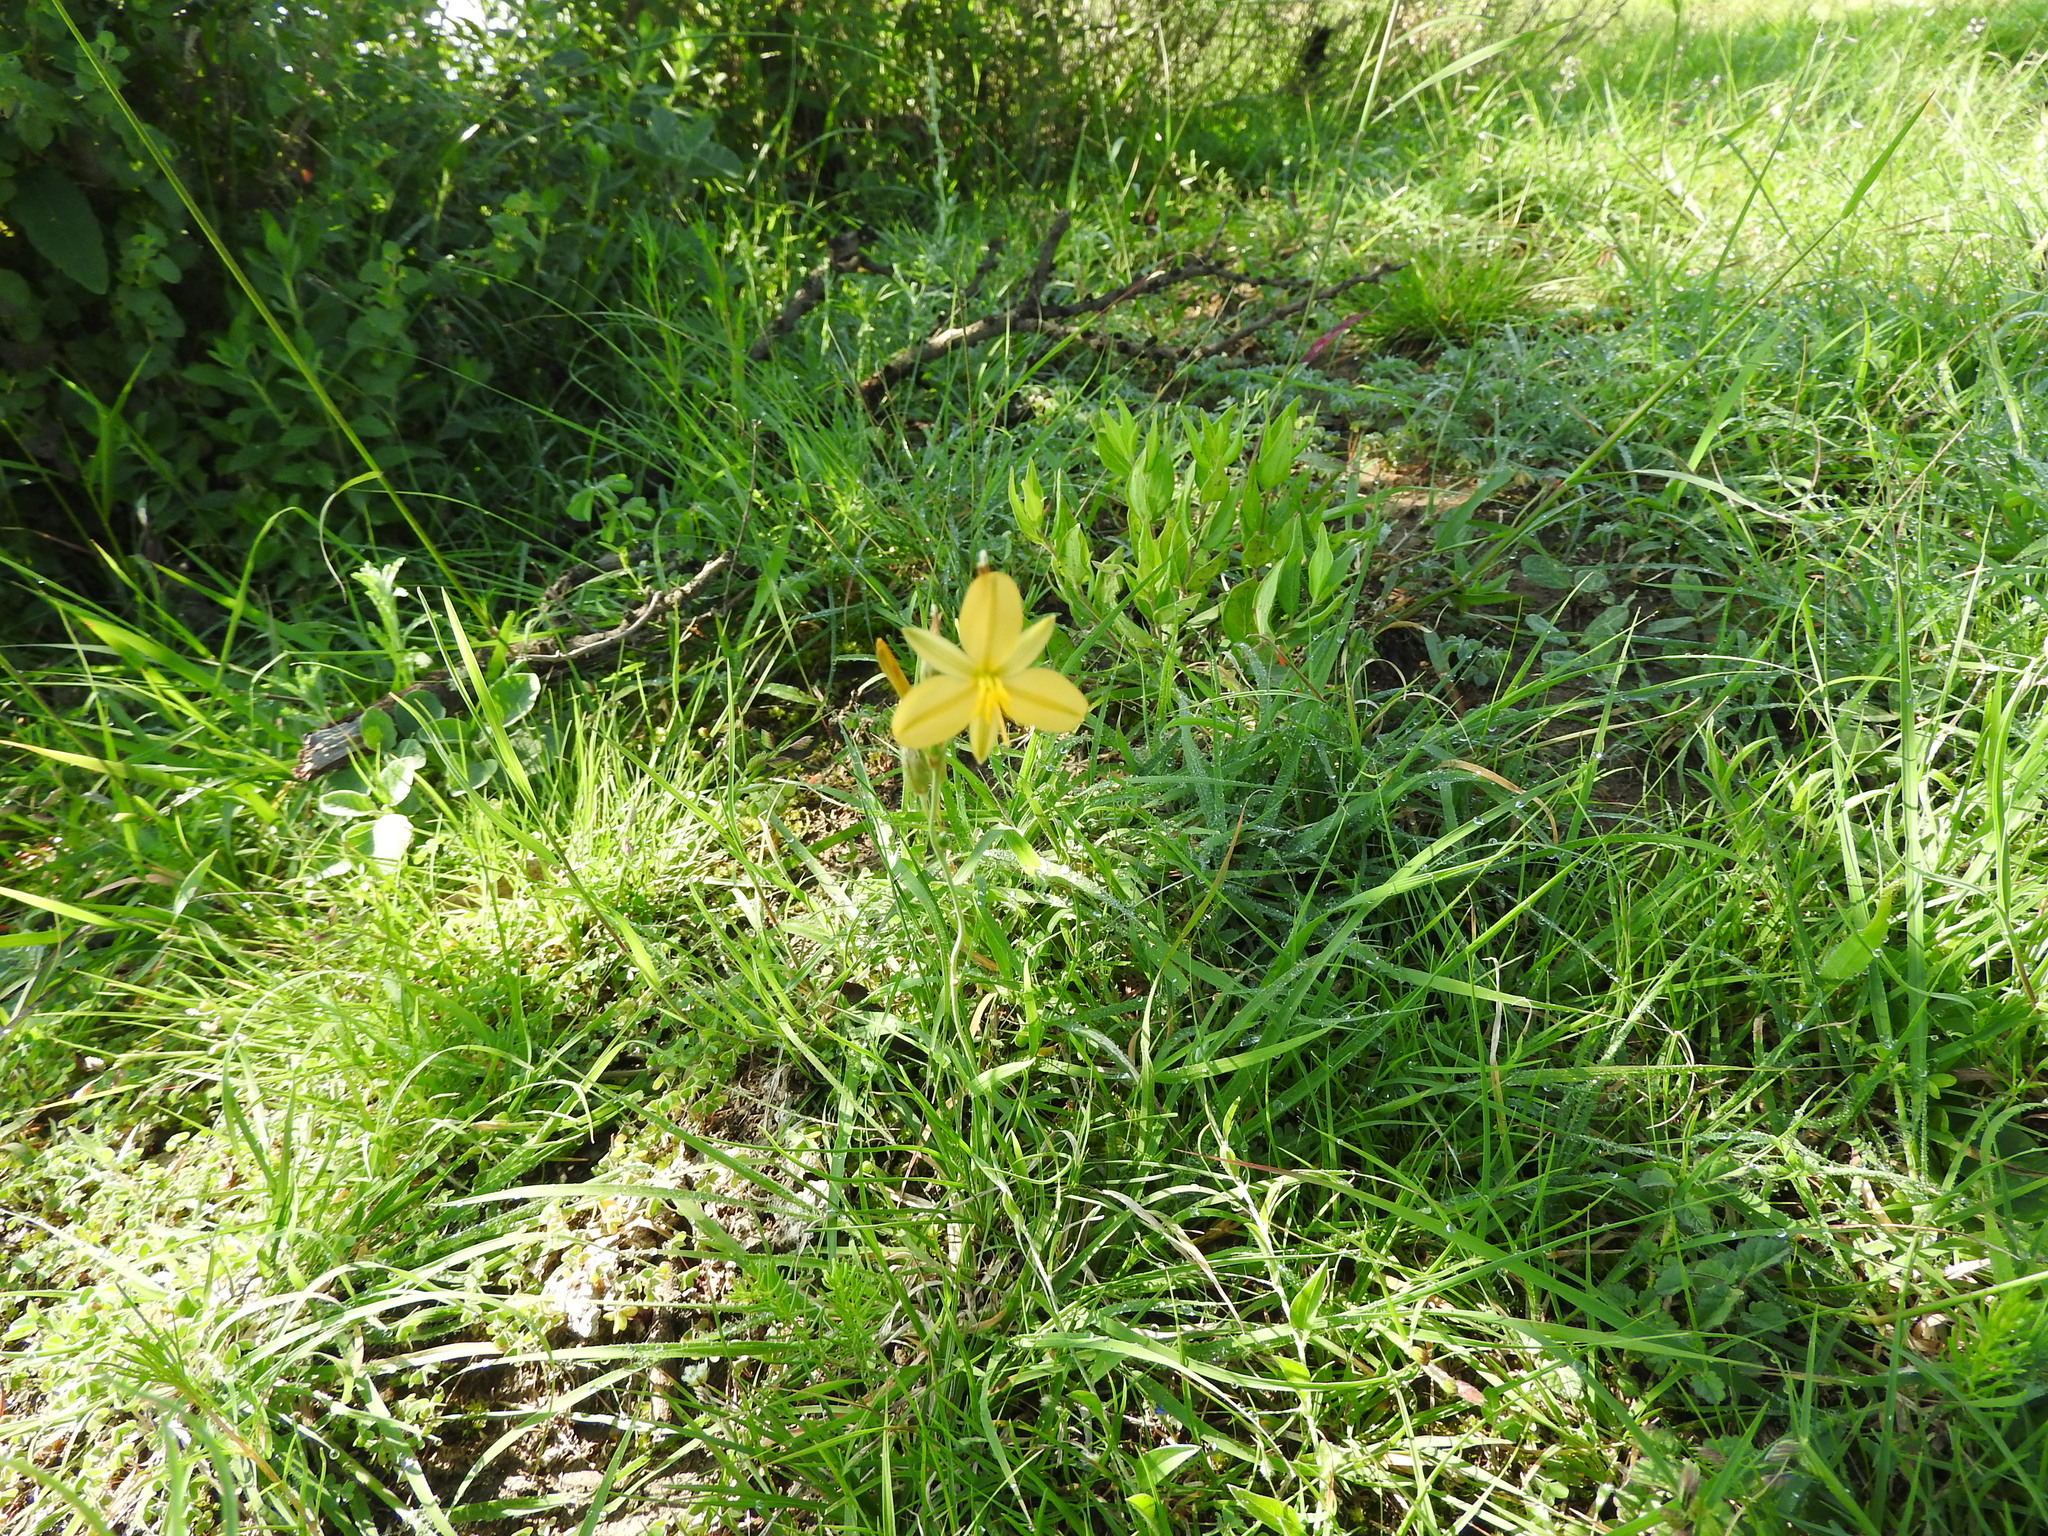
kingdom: Plantae
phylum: Tracheophyta
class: Liliopsida
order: Asparagales
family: Asparagaceae
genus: Echeandia
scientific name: Echeandia flavescens
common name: Amberlily
